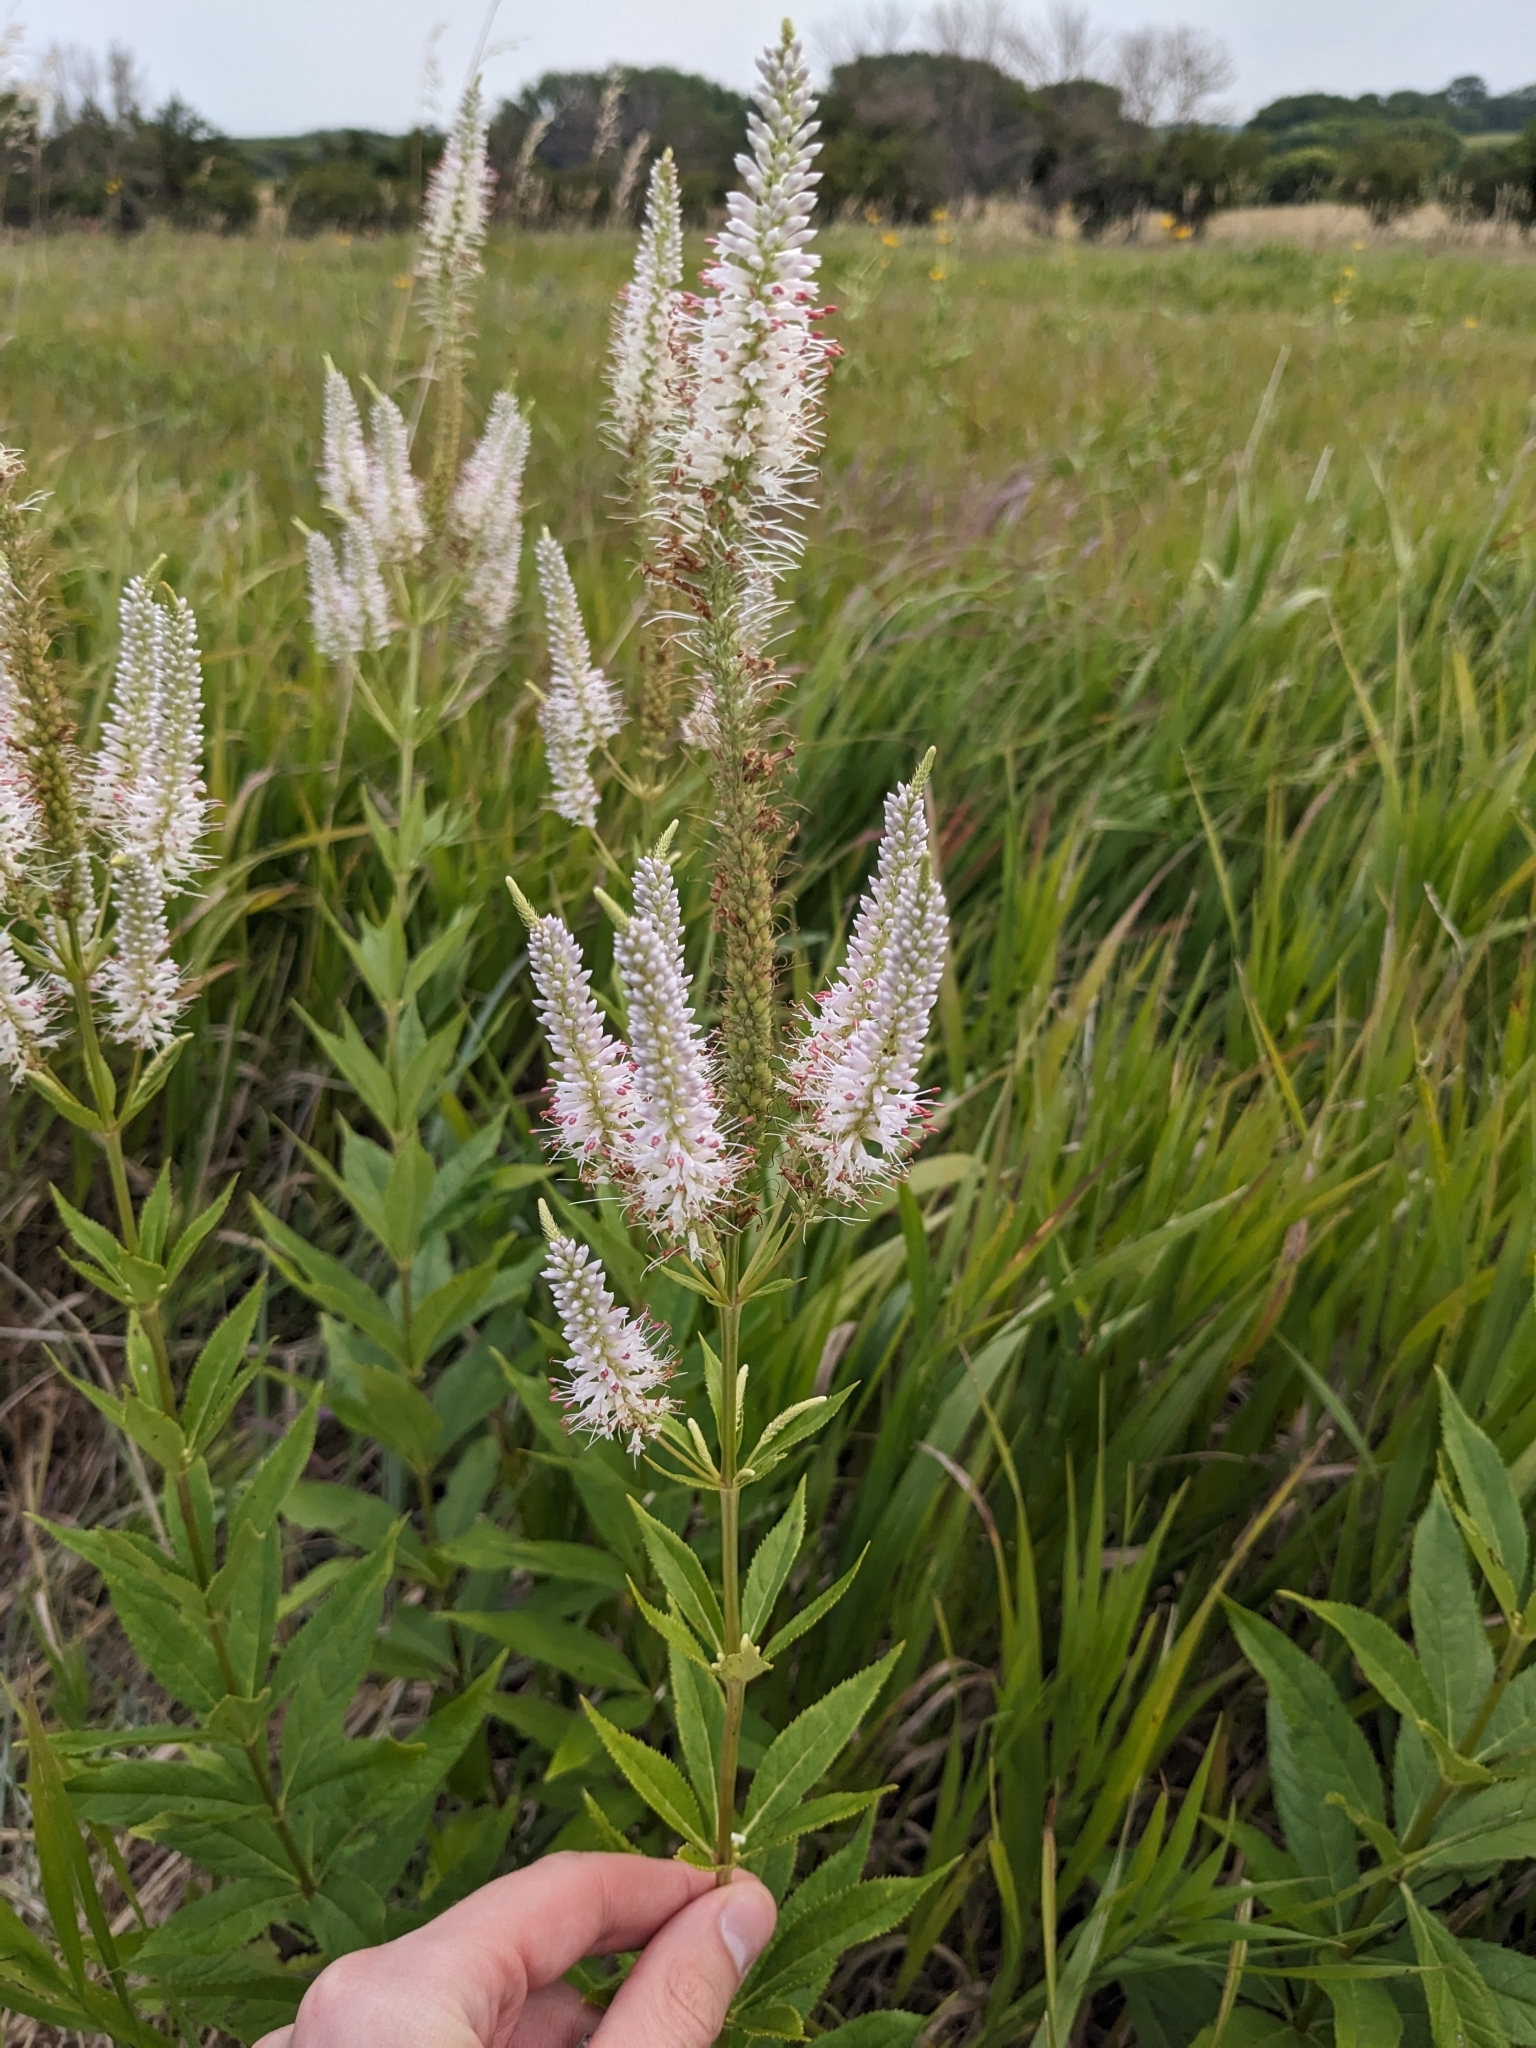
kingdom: Plantae
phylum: Tracheophyta
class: Magnoliopsida
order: Lamiales
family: Plantaginaceae
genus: Veronicastrum
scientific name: Veronicastrum virginicum
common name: Blackroot
